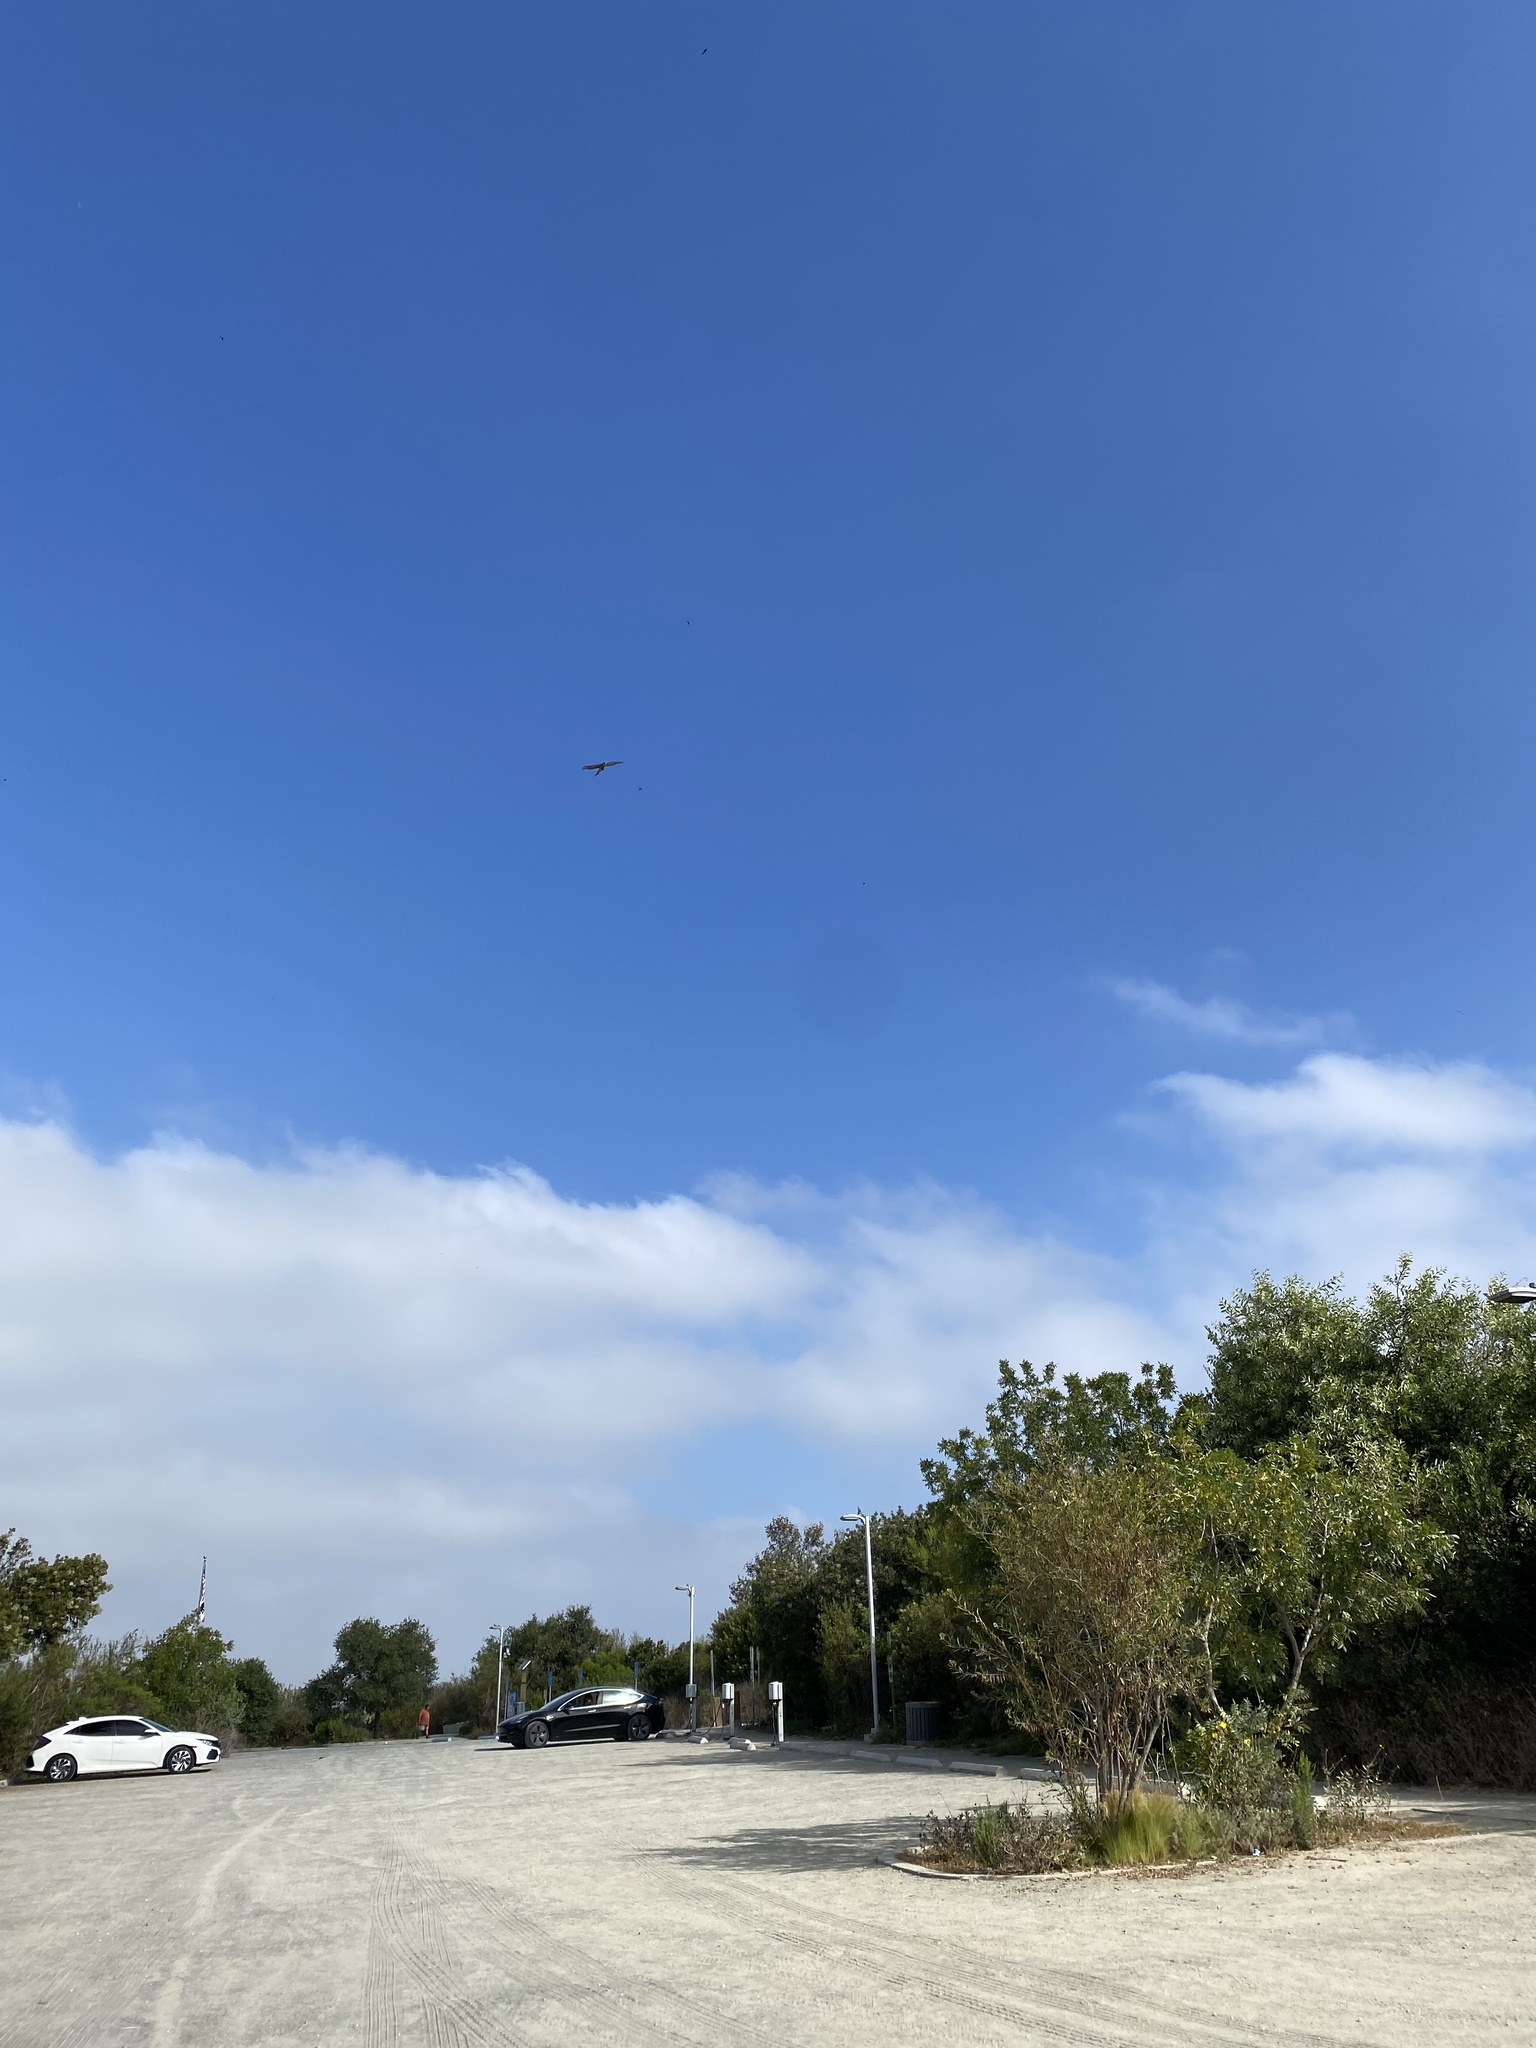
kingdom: Animalia
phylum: Chordata
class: Aves
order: Accipitriformes
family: Accipitridae
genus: Accipiter
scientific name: Accipiter cooperii
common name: Cooper's hawk
